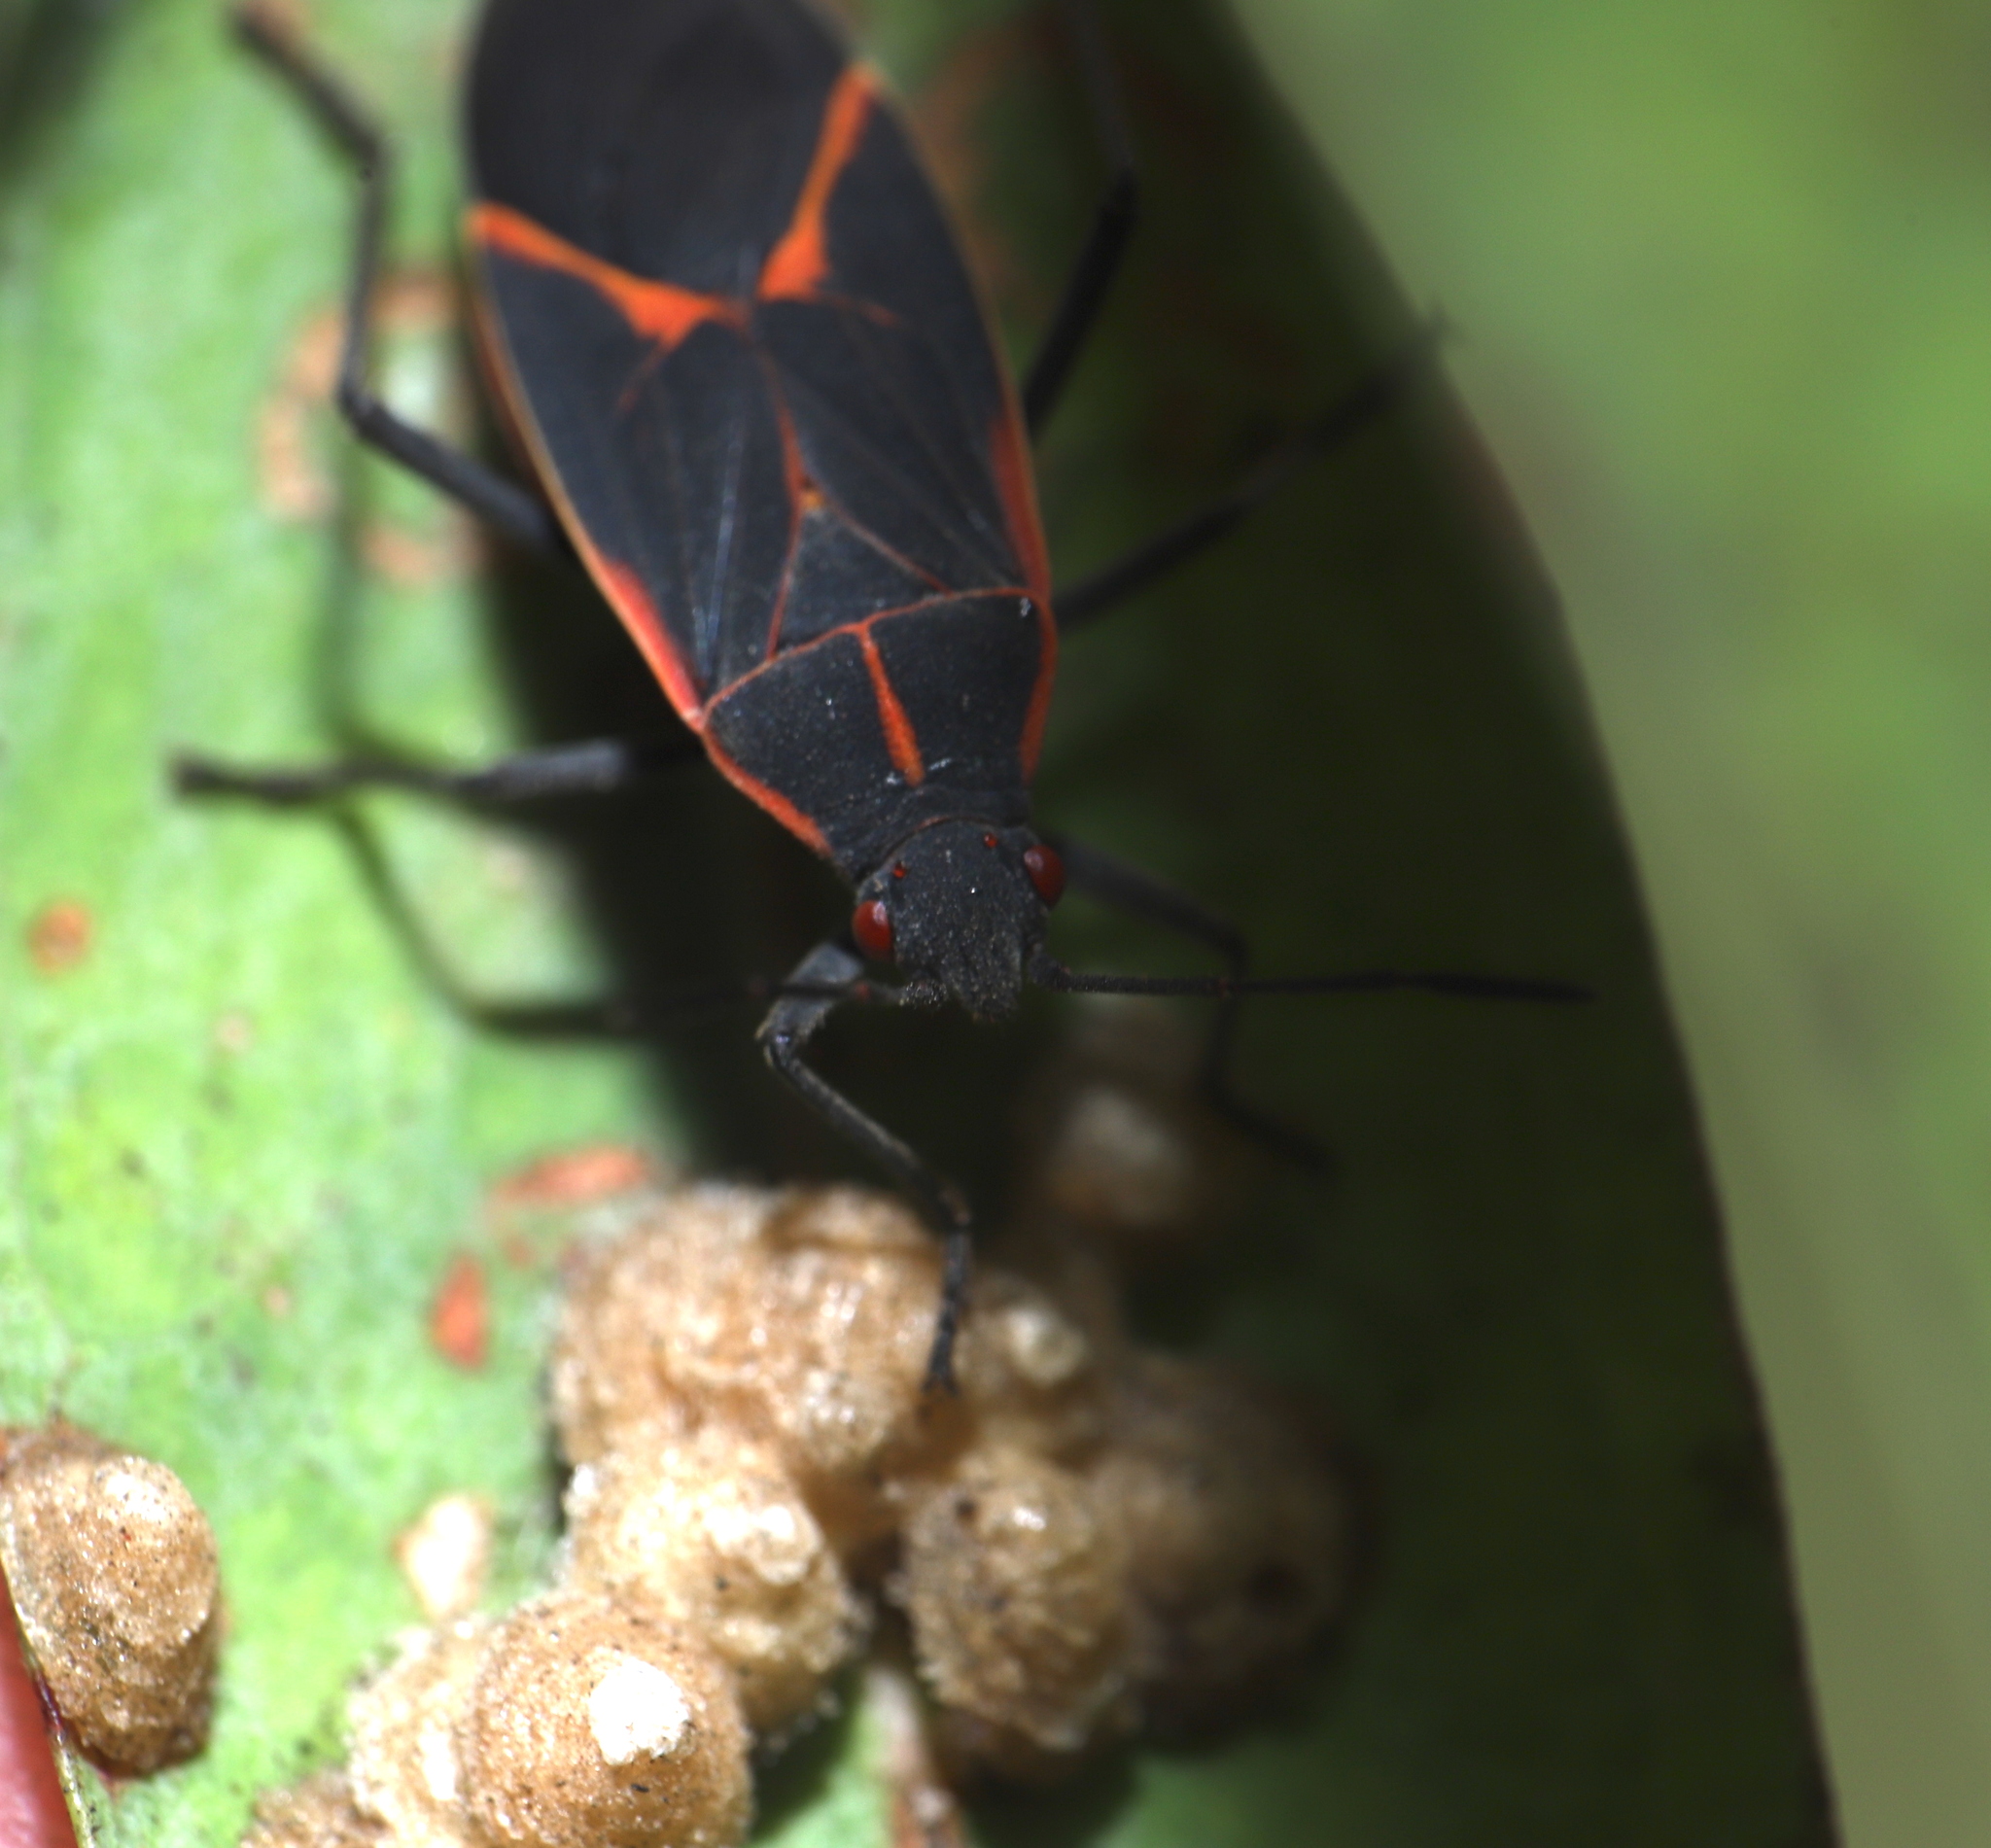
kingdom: Animalia
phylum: Arthropoda
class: Insecta
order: Hemiptera
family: Rhopalidae
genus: Boisea
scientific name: Boisea trivittata
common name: Boxelder bug
